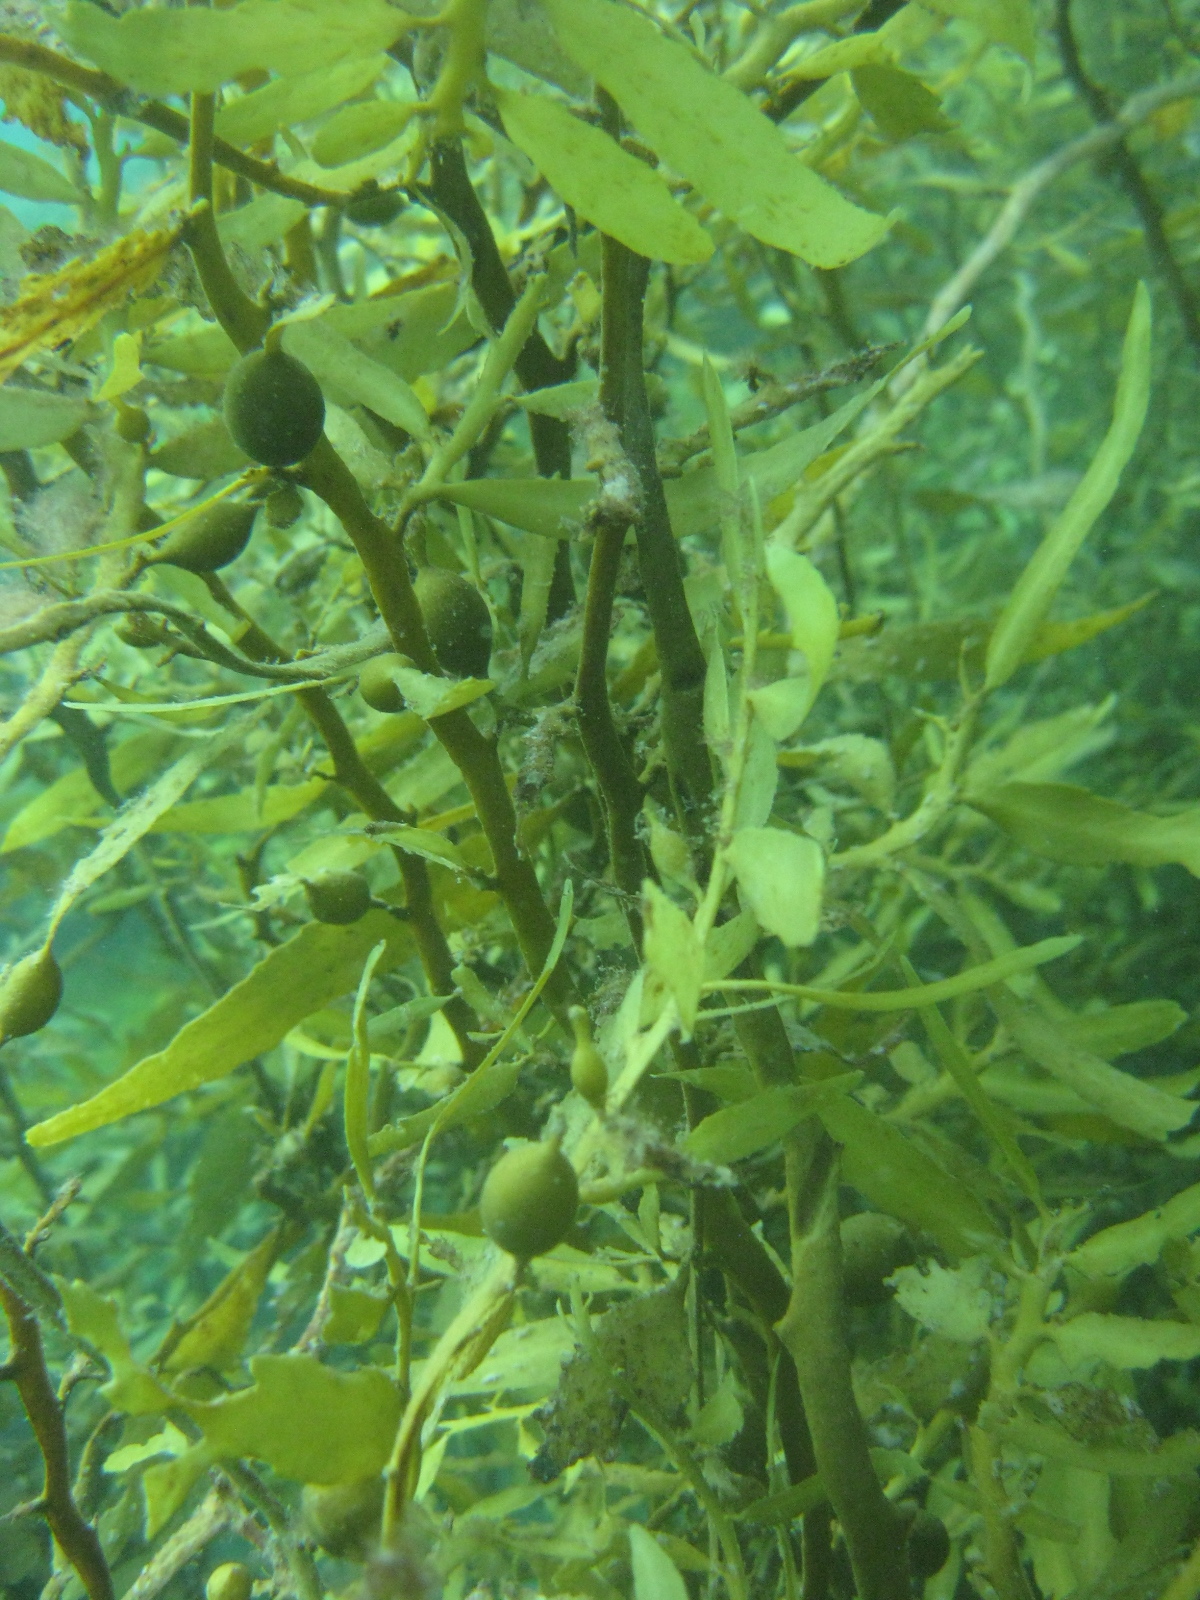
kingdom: Chromista
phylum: Ochrophyta
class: Phaeophyceae
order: Fucales
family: Sargassaceae
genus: Carpophyllum
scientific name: Carpophyllum flexuosum
